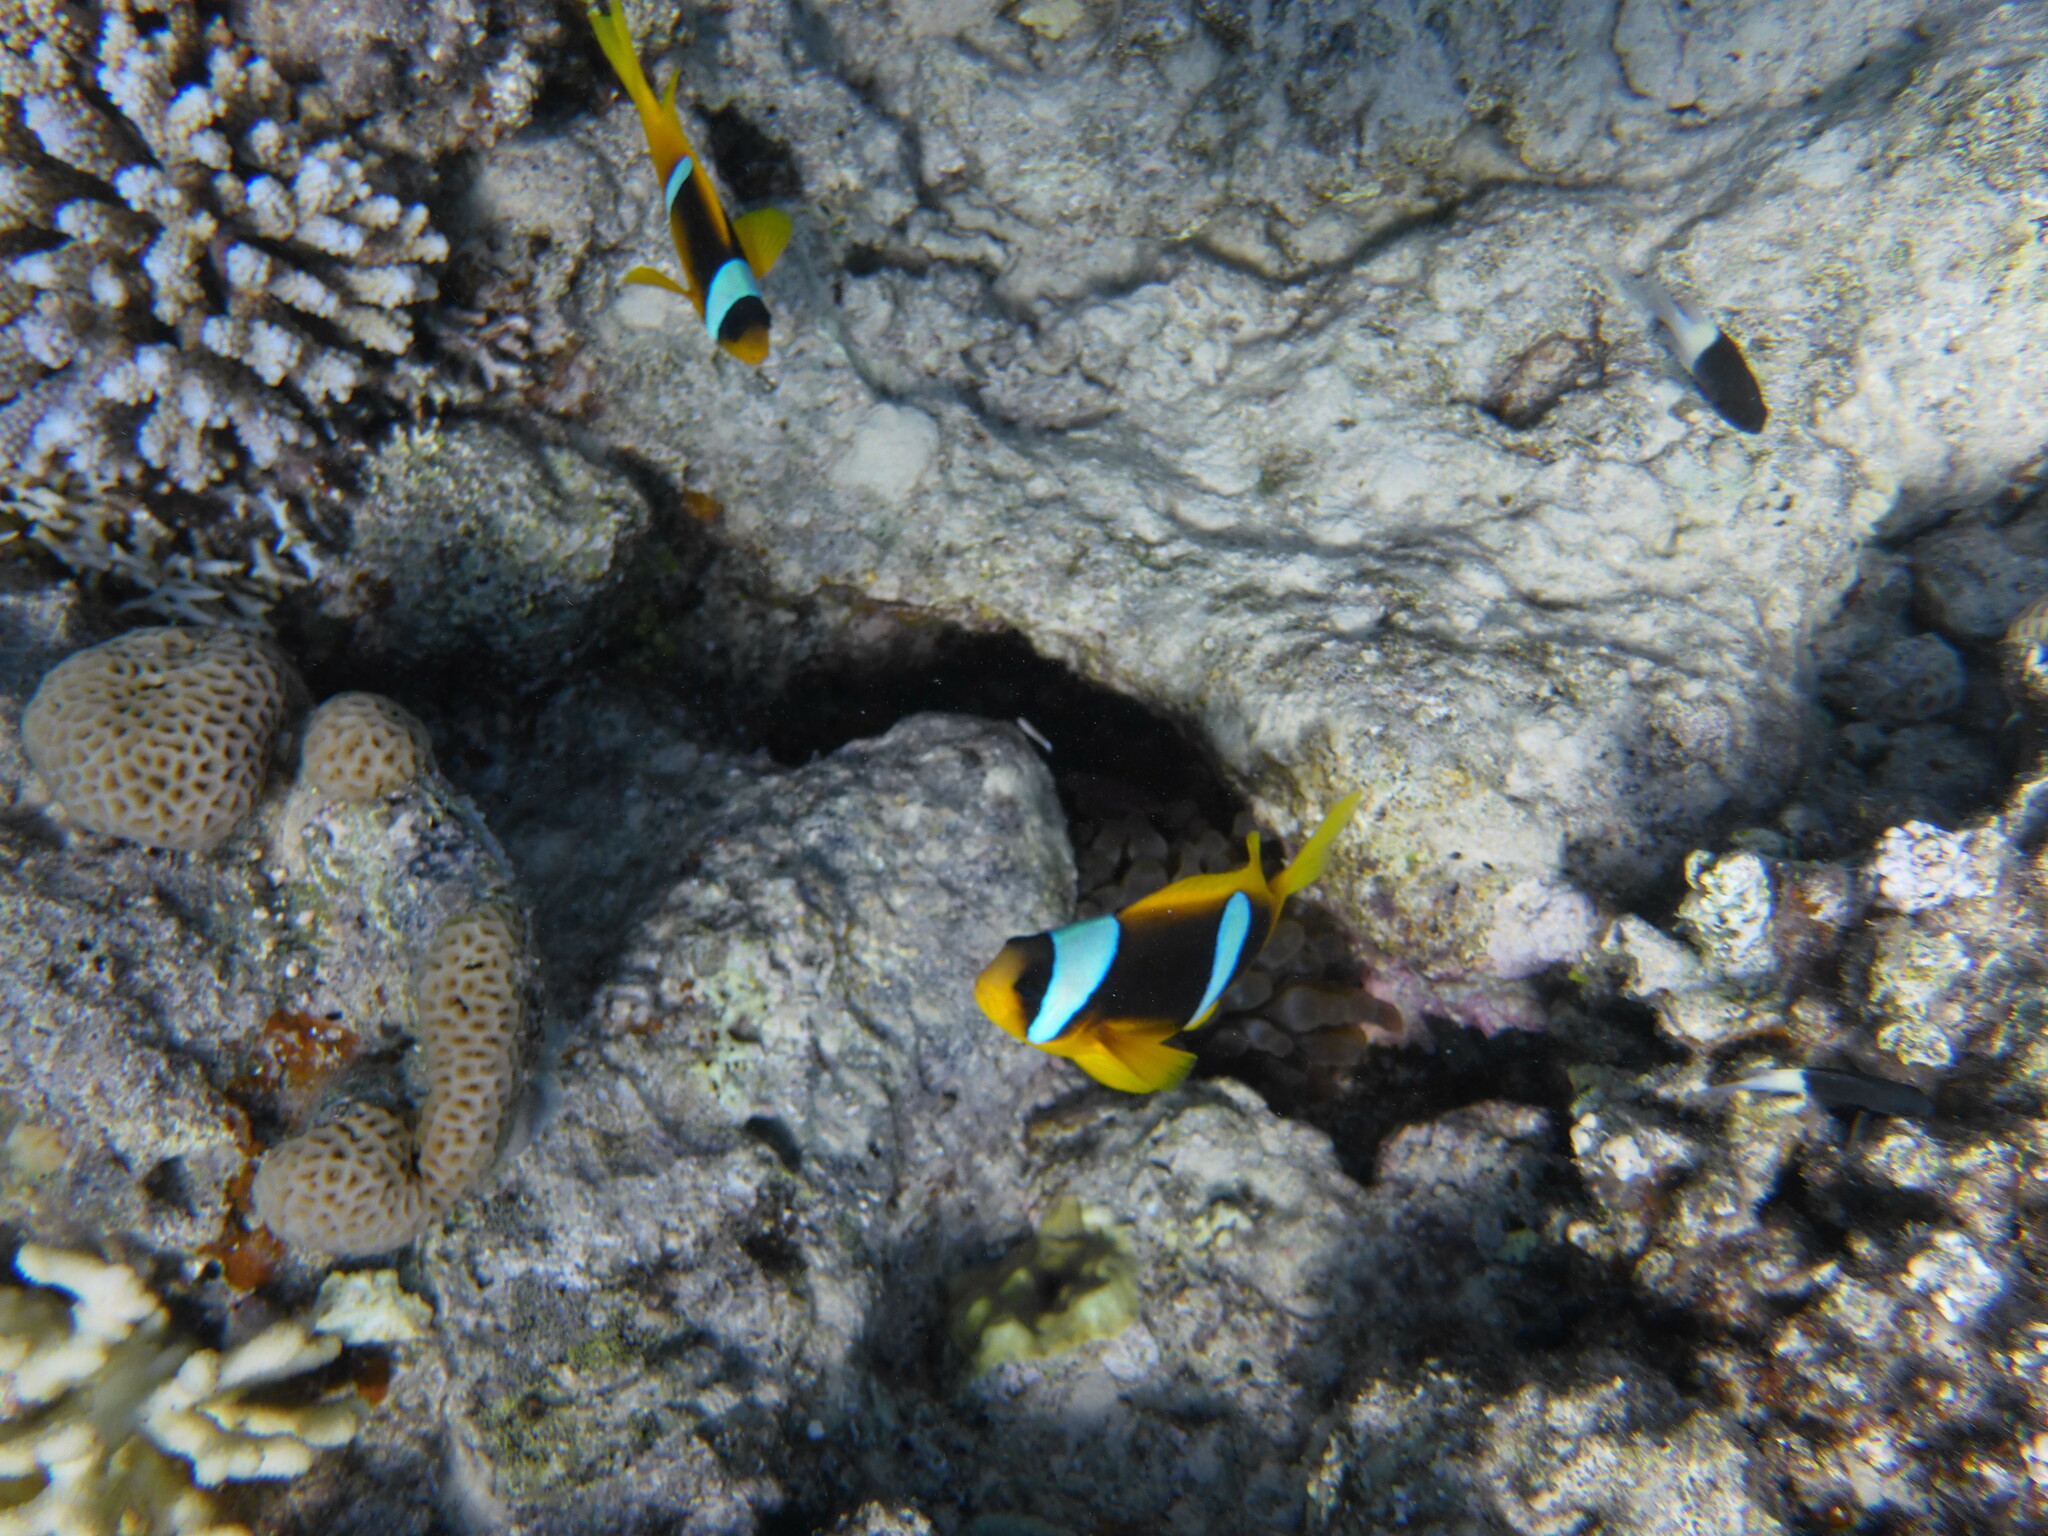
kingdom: Animalia
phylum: Chordata
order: Perciformes
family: Pomacentridae
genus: Amphiprion
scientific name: Amphiprion bicinctus
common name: Two-banded anemonefish
